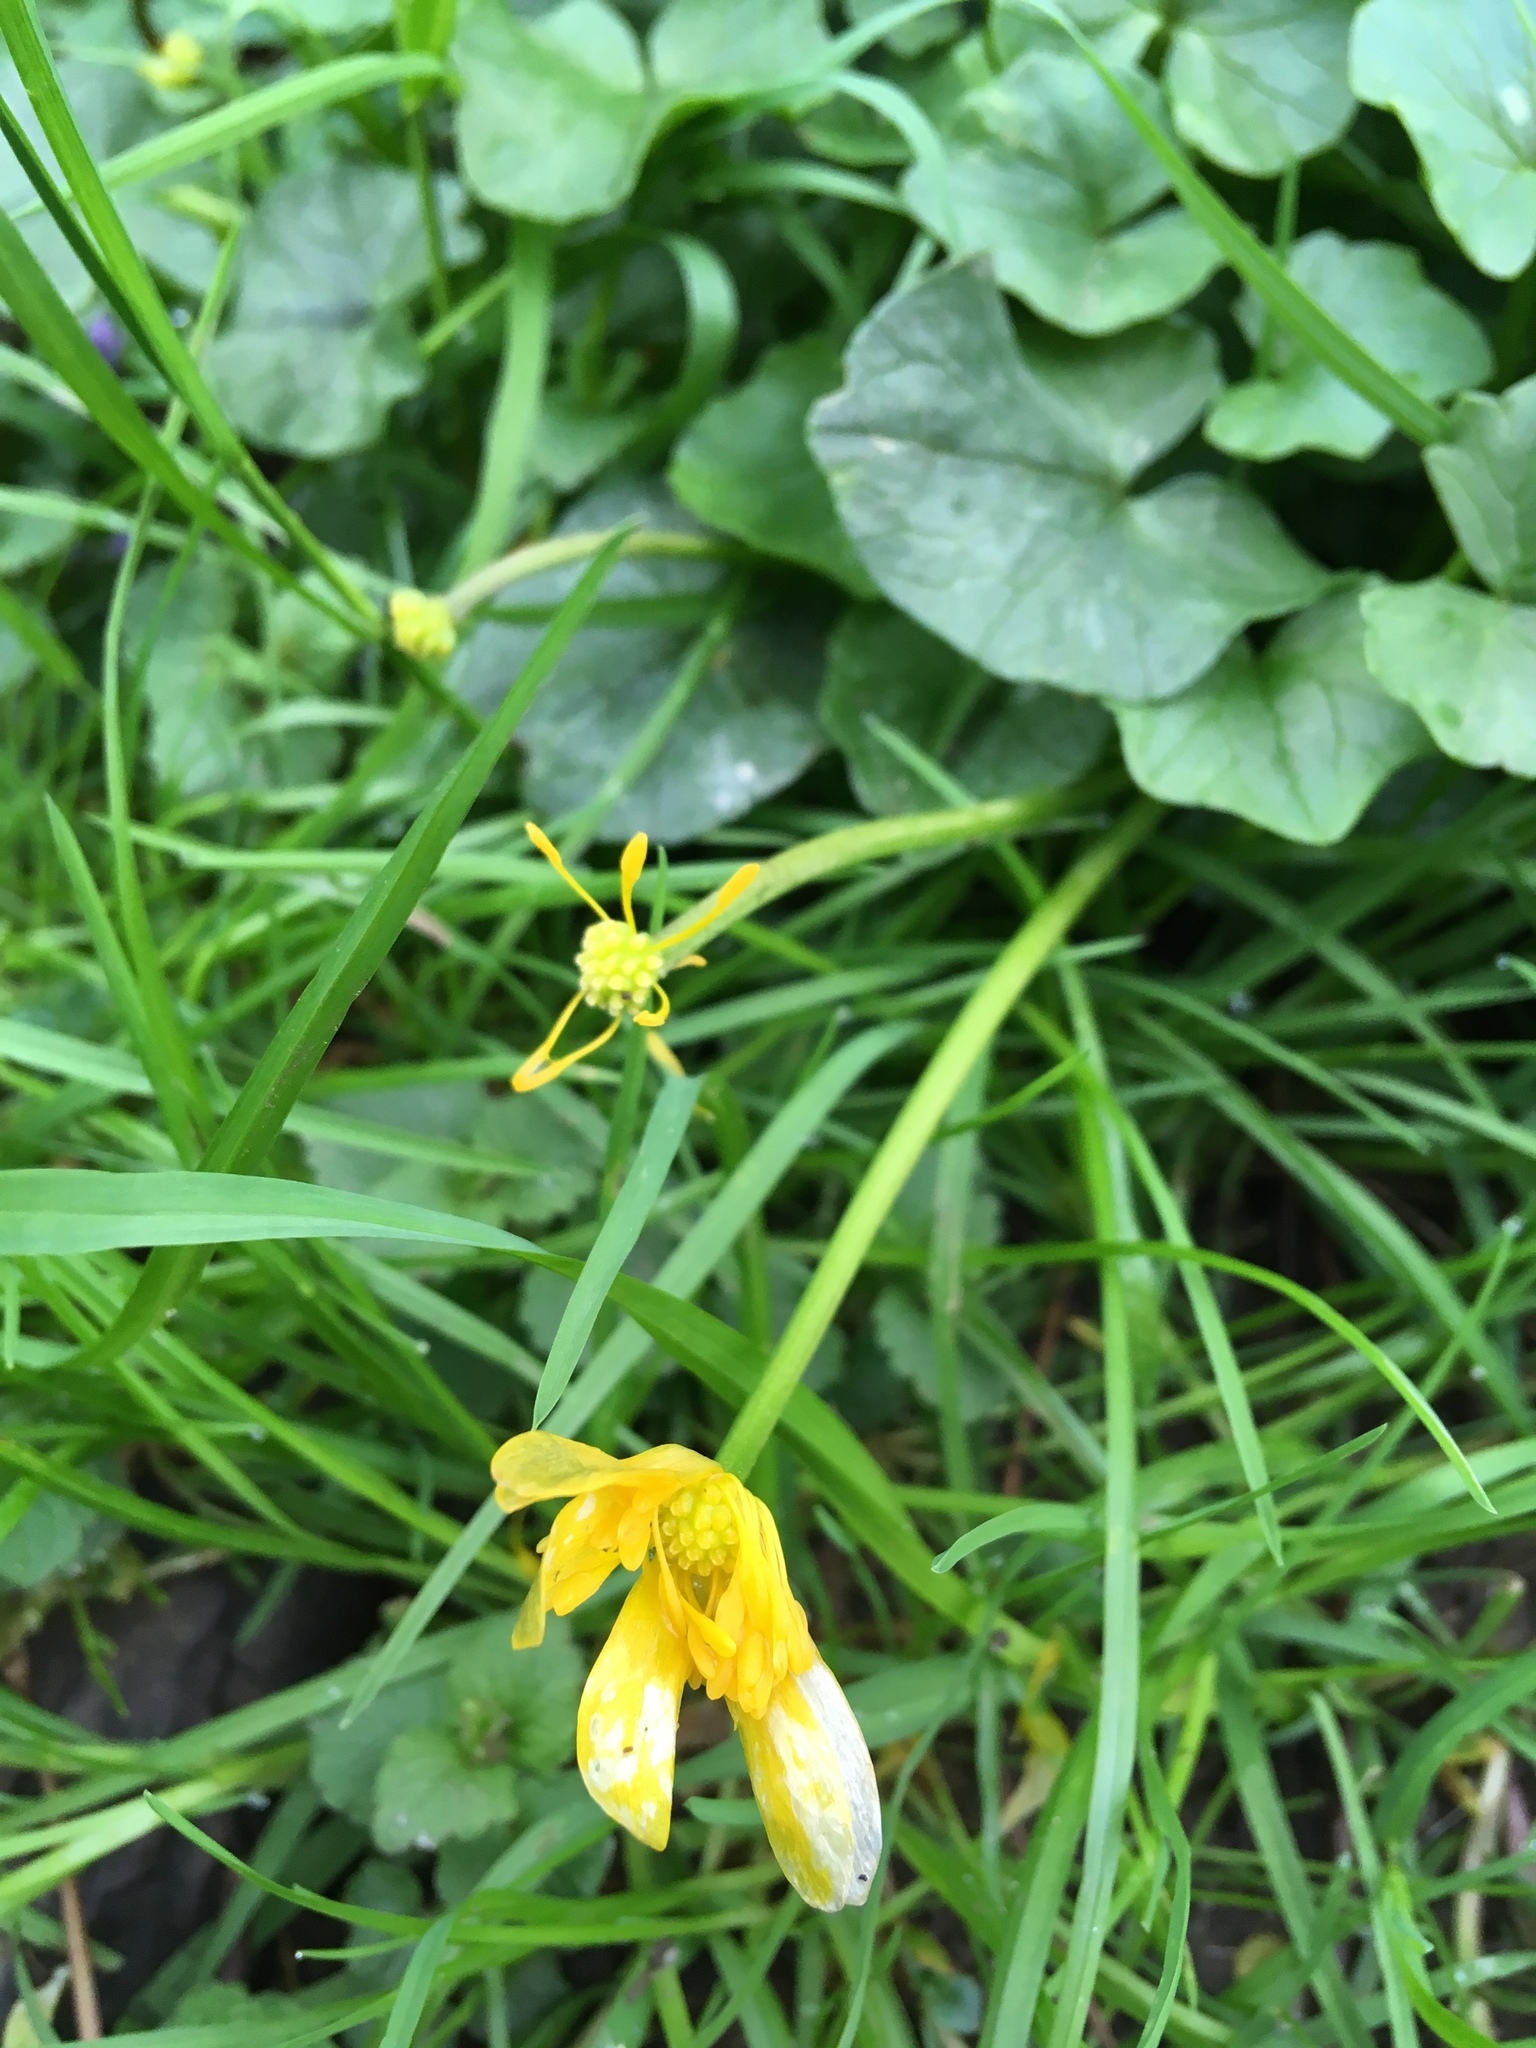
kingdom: Plantae
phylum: Tracheophyta
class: Magnoliopsida
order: Ranunculales
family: Ranunculaceae
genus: Ficaria
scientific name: Ficaria verna
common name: Lesser celandine
